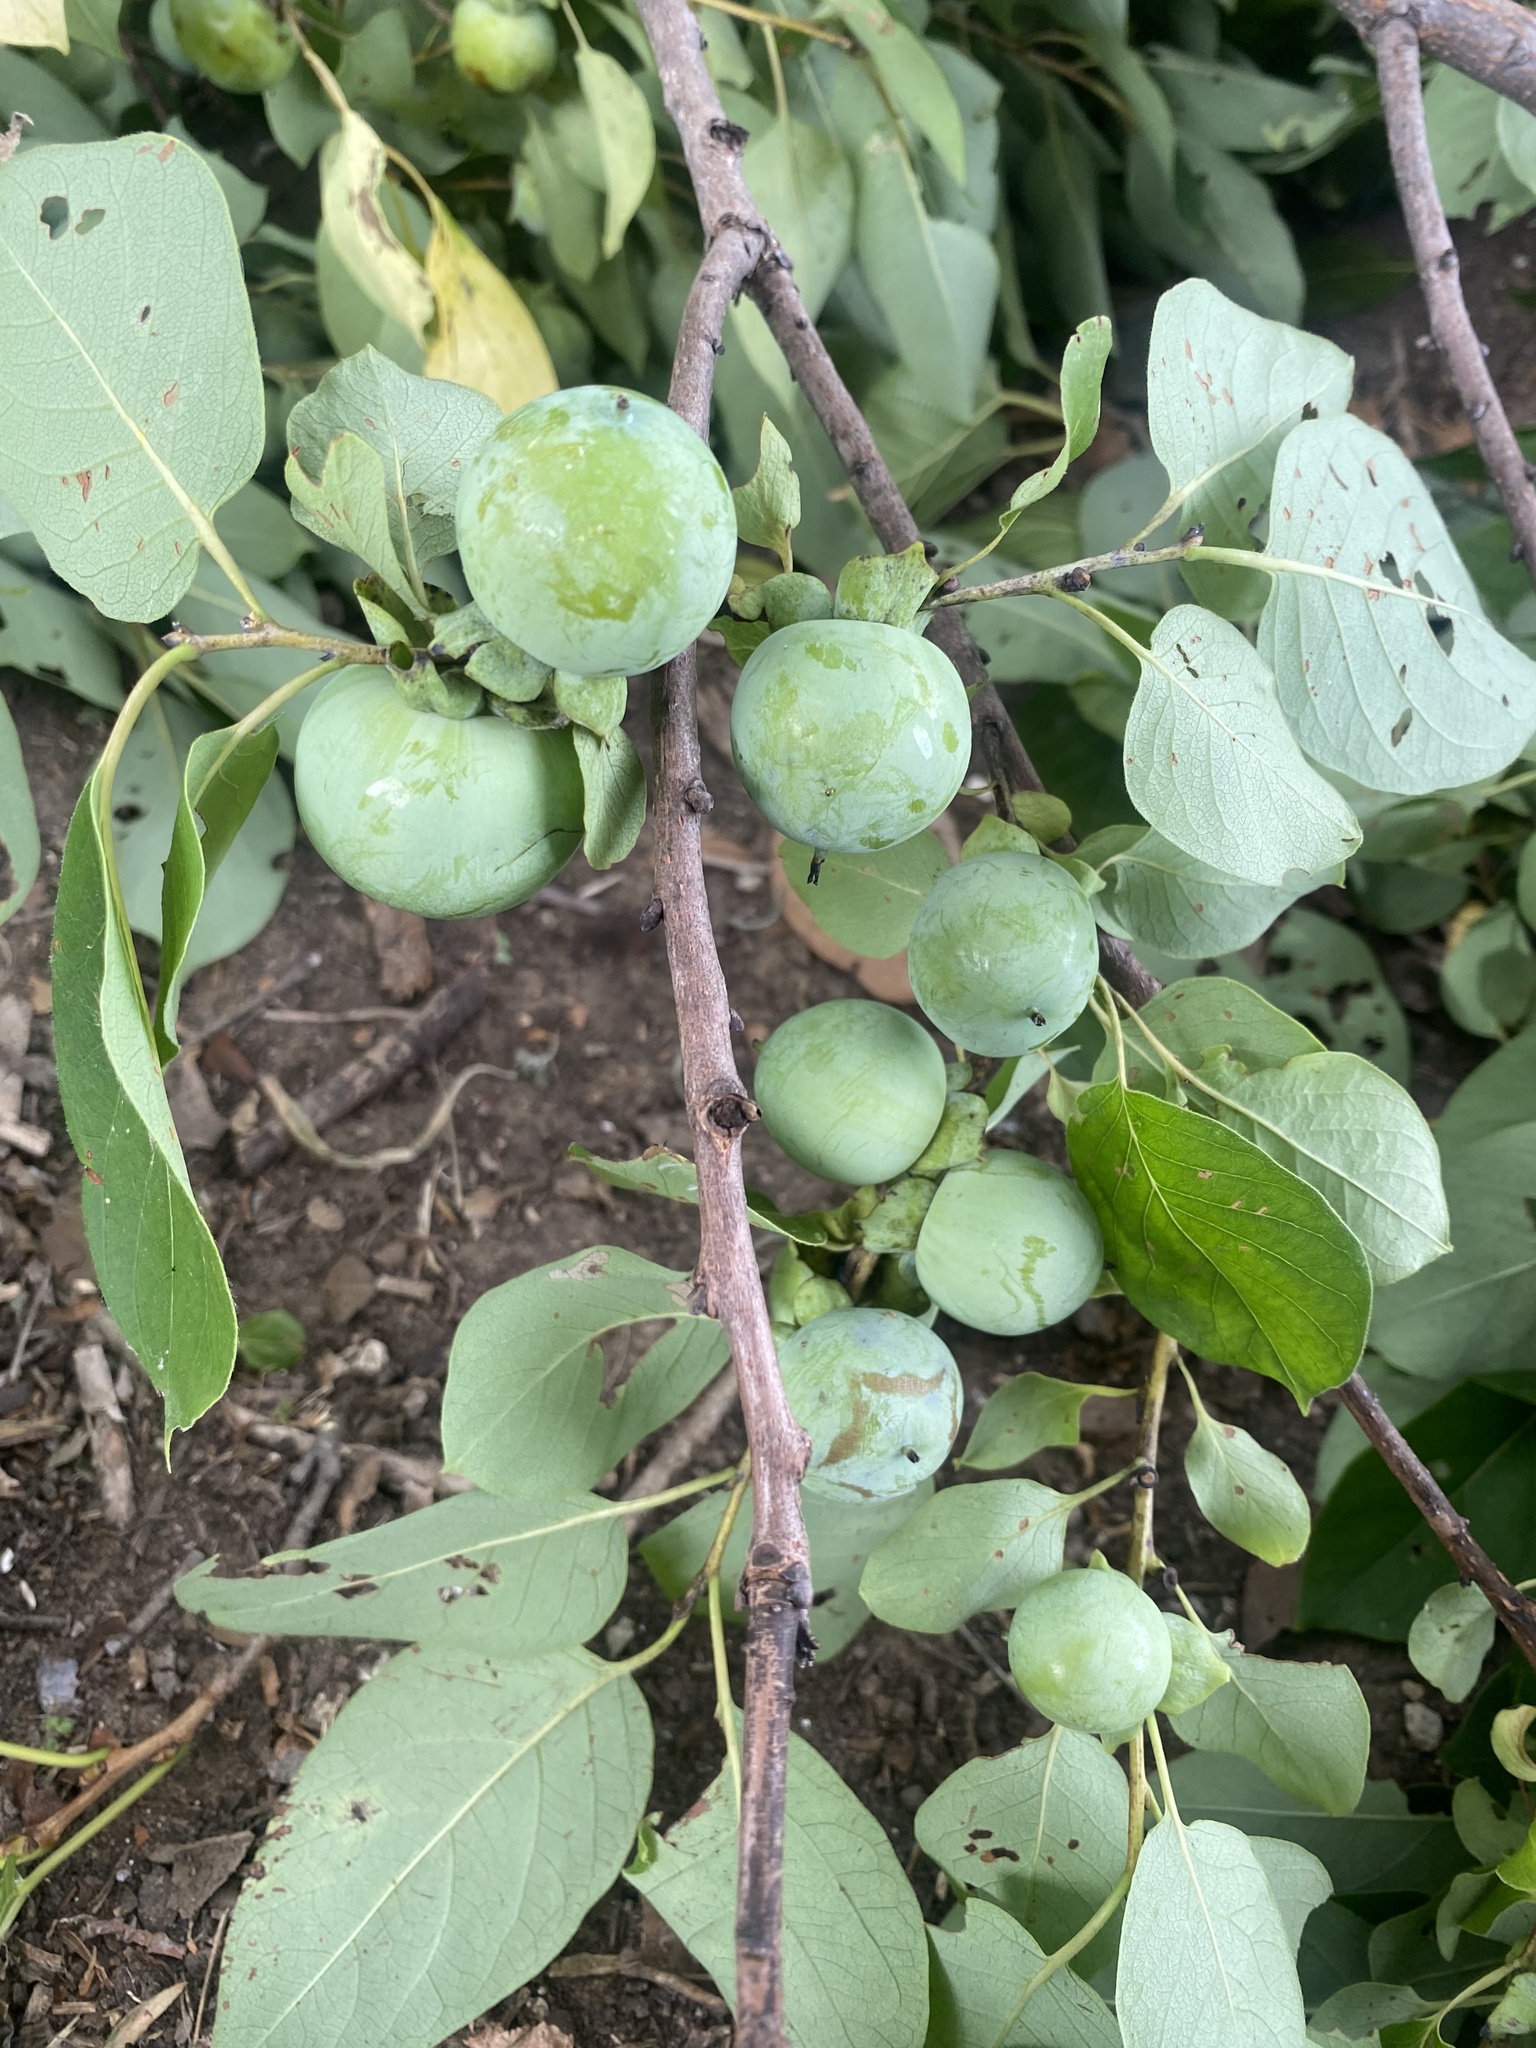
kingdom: Plantae
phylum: Tracheophyta
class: Magnoliopsida
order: Ericales
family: Ebenaceae
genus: Diospyros
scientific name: Diospyros virginiana
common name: Persimmon
